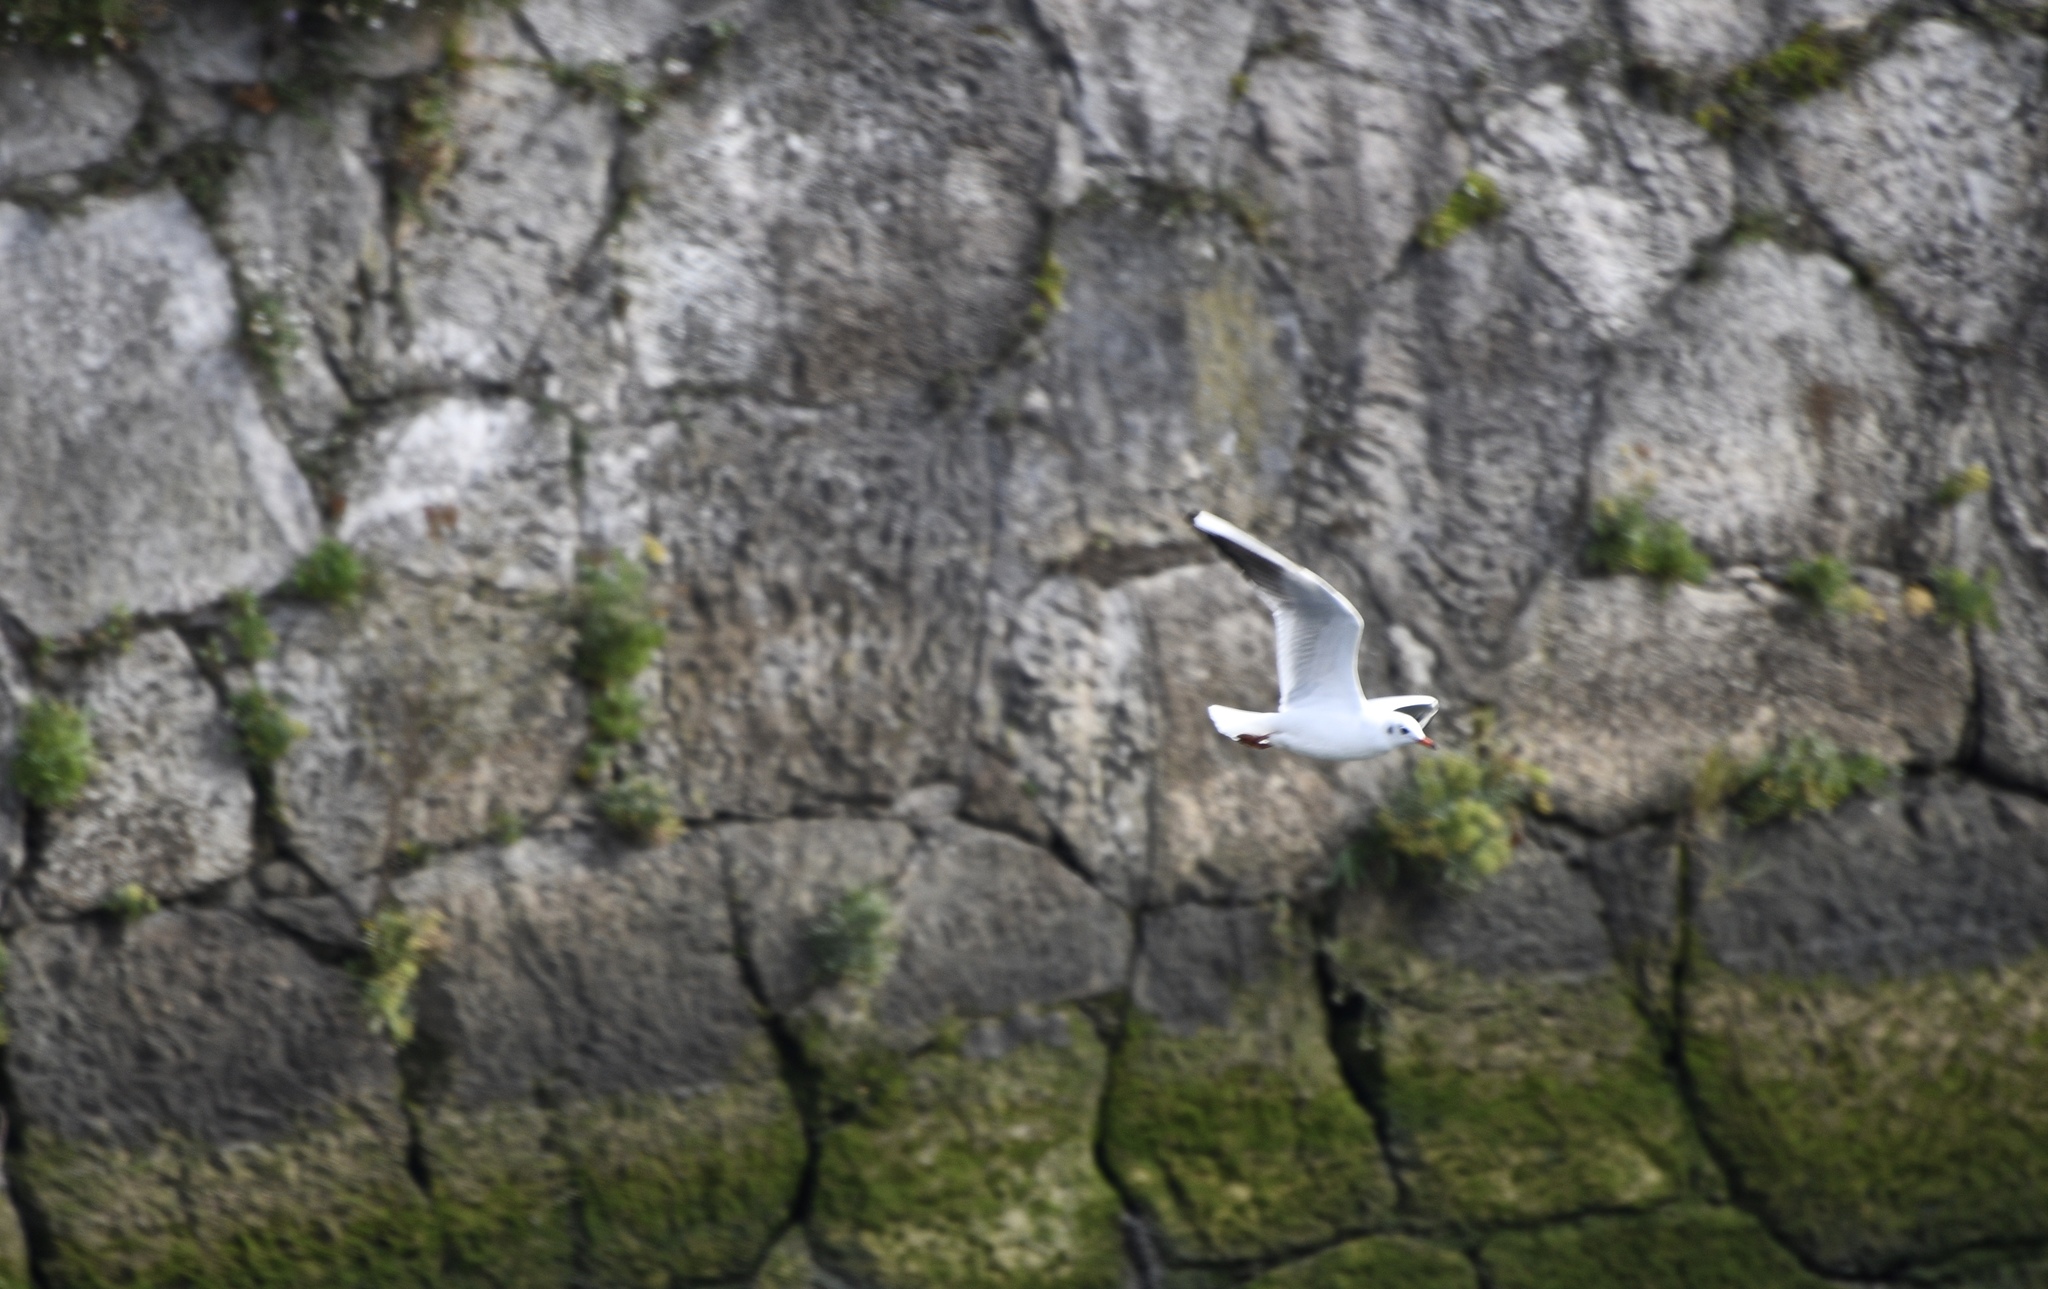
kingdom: Animalia
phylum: Chordata
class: Aves
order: Charadriiformes
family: Laridae
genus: Chroicocephalus
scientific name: Chroicocephalus ridibundus
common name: Black-headed gull
